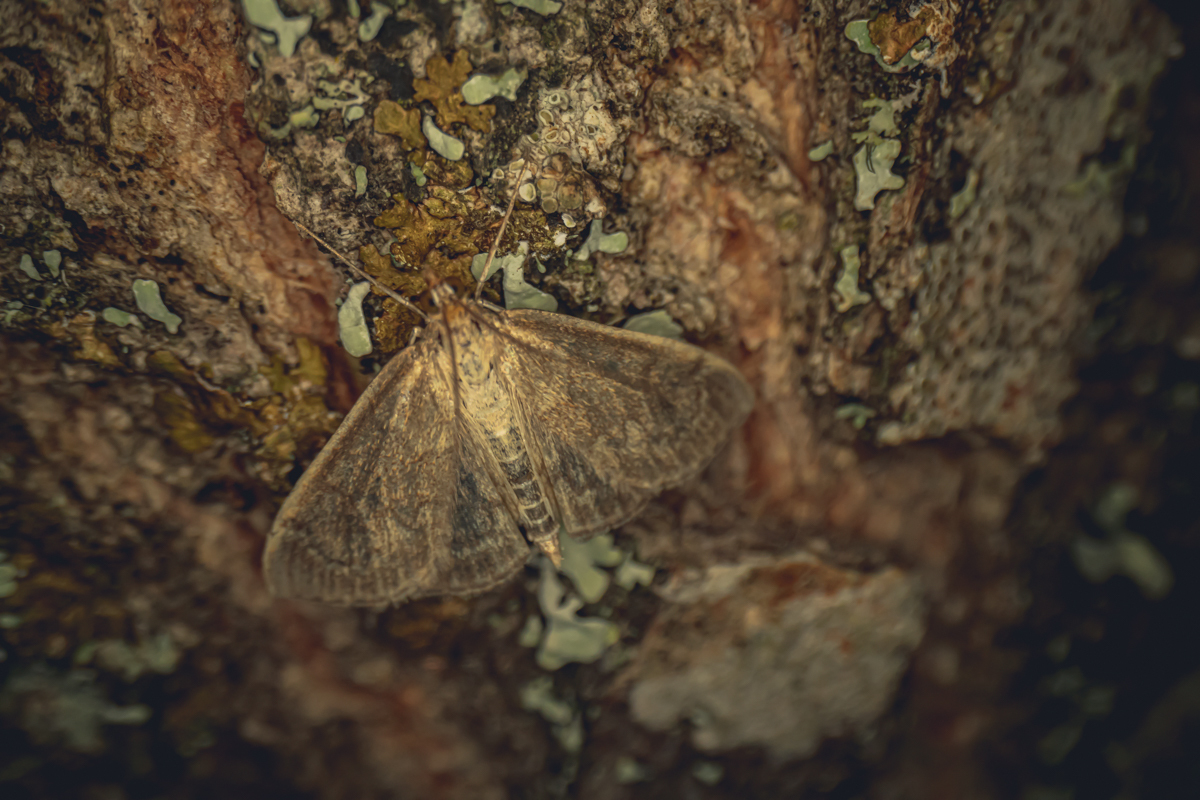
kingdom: Animalia
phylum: Arthropoda
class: Insecta
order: Lepidoptera
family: Crambidae
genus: Anania
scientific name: Anania fuscalis
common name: Cinerous pearl
